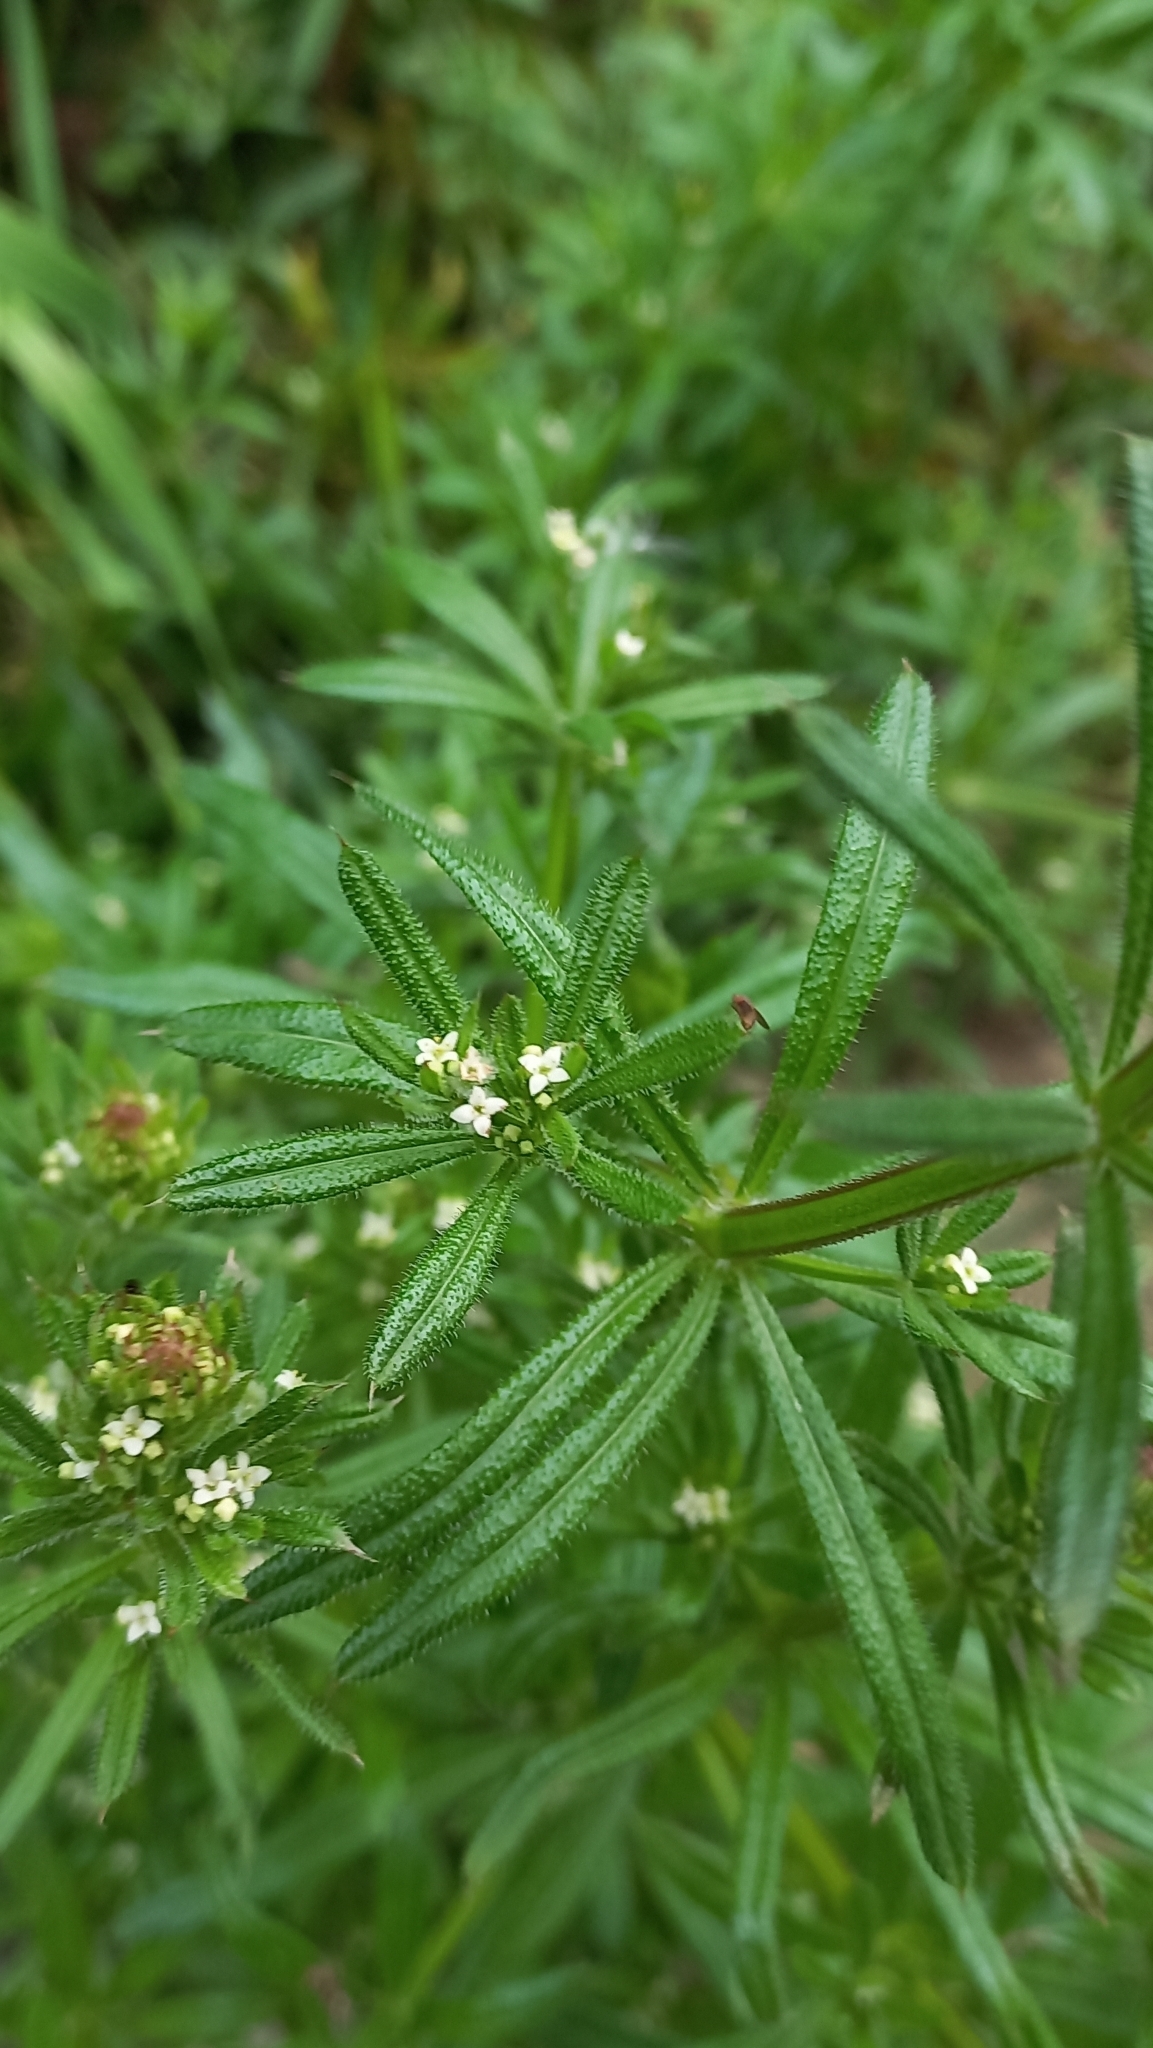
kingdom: Plantae
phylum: Tracheophyta
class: Magnoliopsida
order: Gentianales
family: Rubiaceae
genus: Galium
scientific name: Galium aparine
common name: Cleavers
